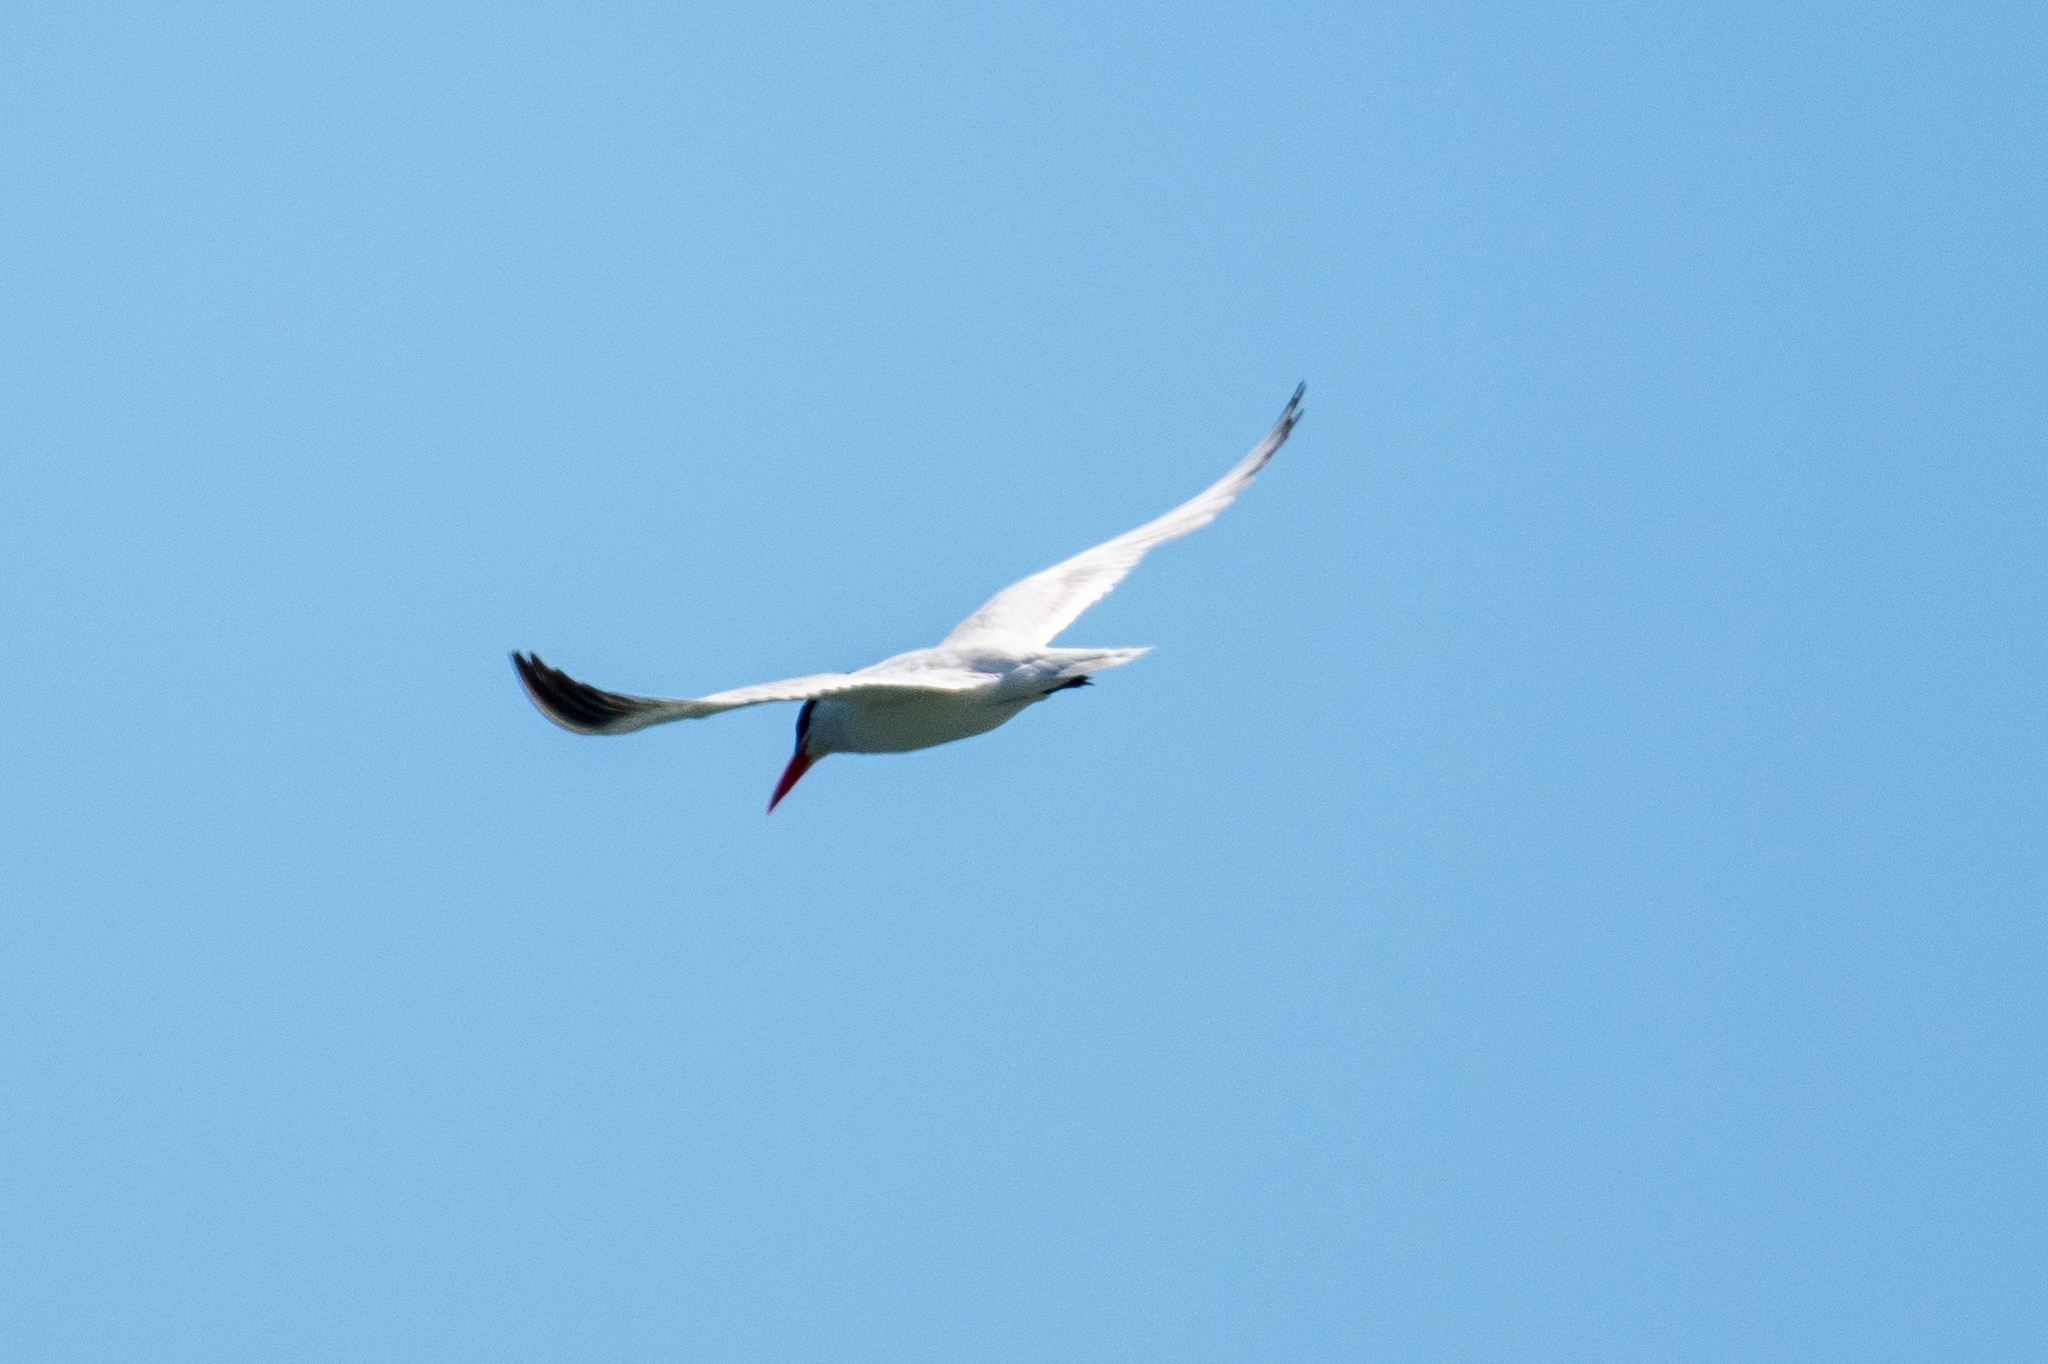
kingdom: Animalia
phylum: Chordata
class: Aves
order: Charadriiformes
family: Laridae
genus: Hydroprogne
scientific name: Hydroprogne caspia
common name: Caspian tern
